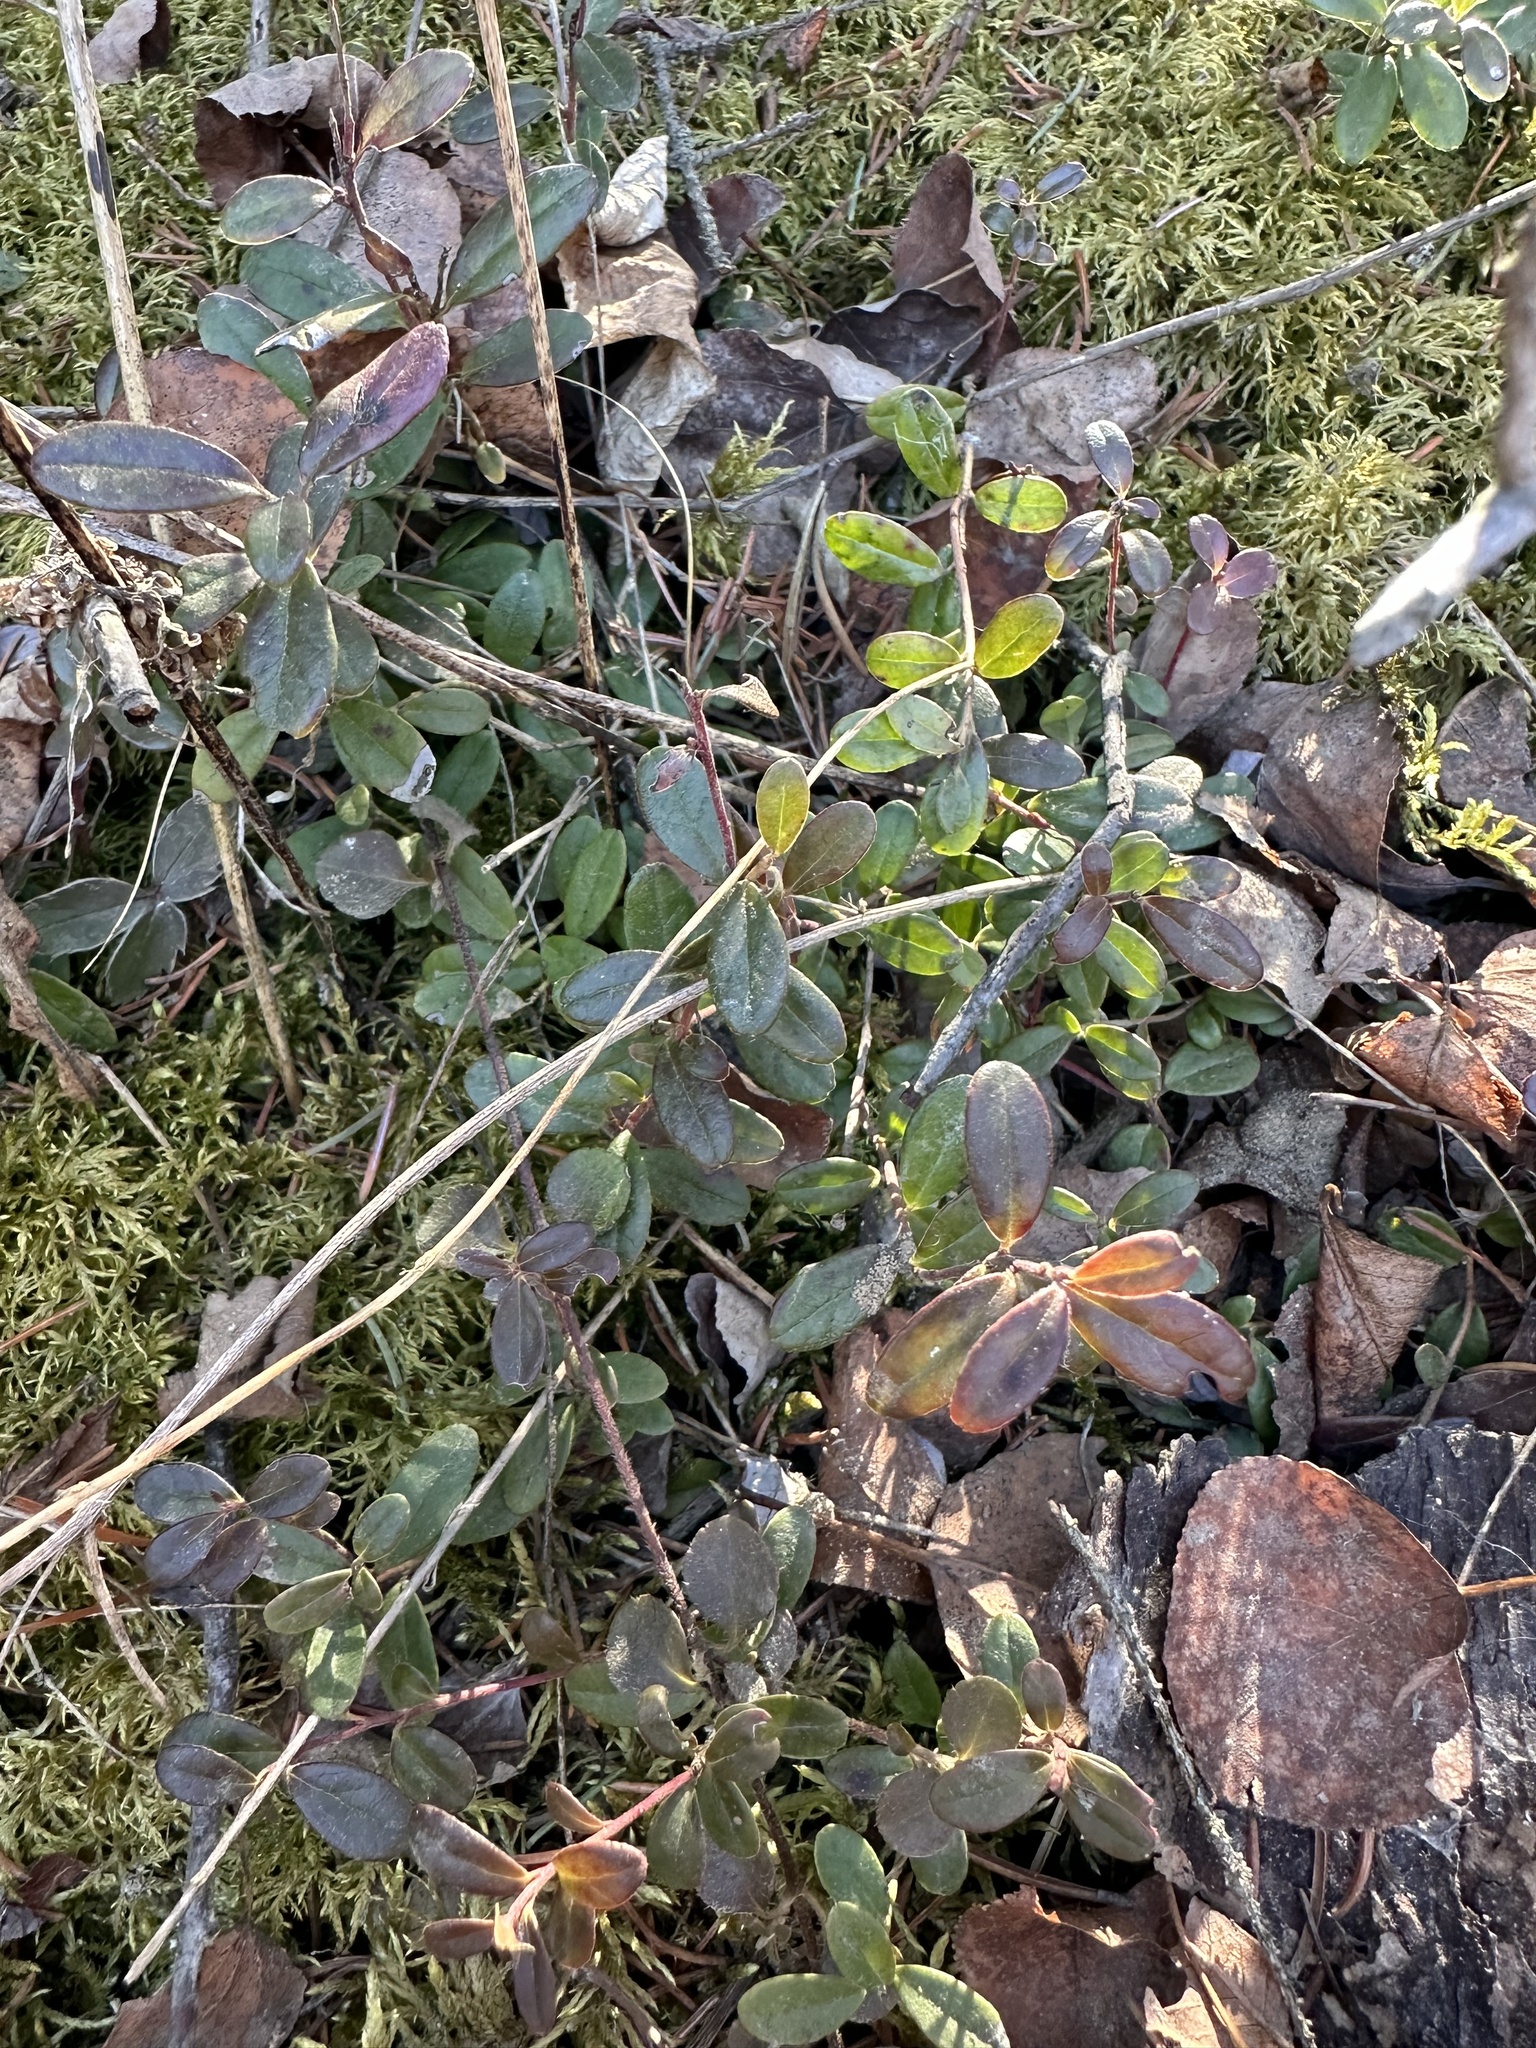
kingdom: Plantae
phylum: Tracheophyta
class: Magnoliopsida
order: Ericales
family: Ericaceae
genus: Vaccinium
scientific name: Vaccinium vitis-idaea
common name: Cowberry
